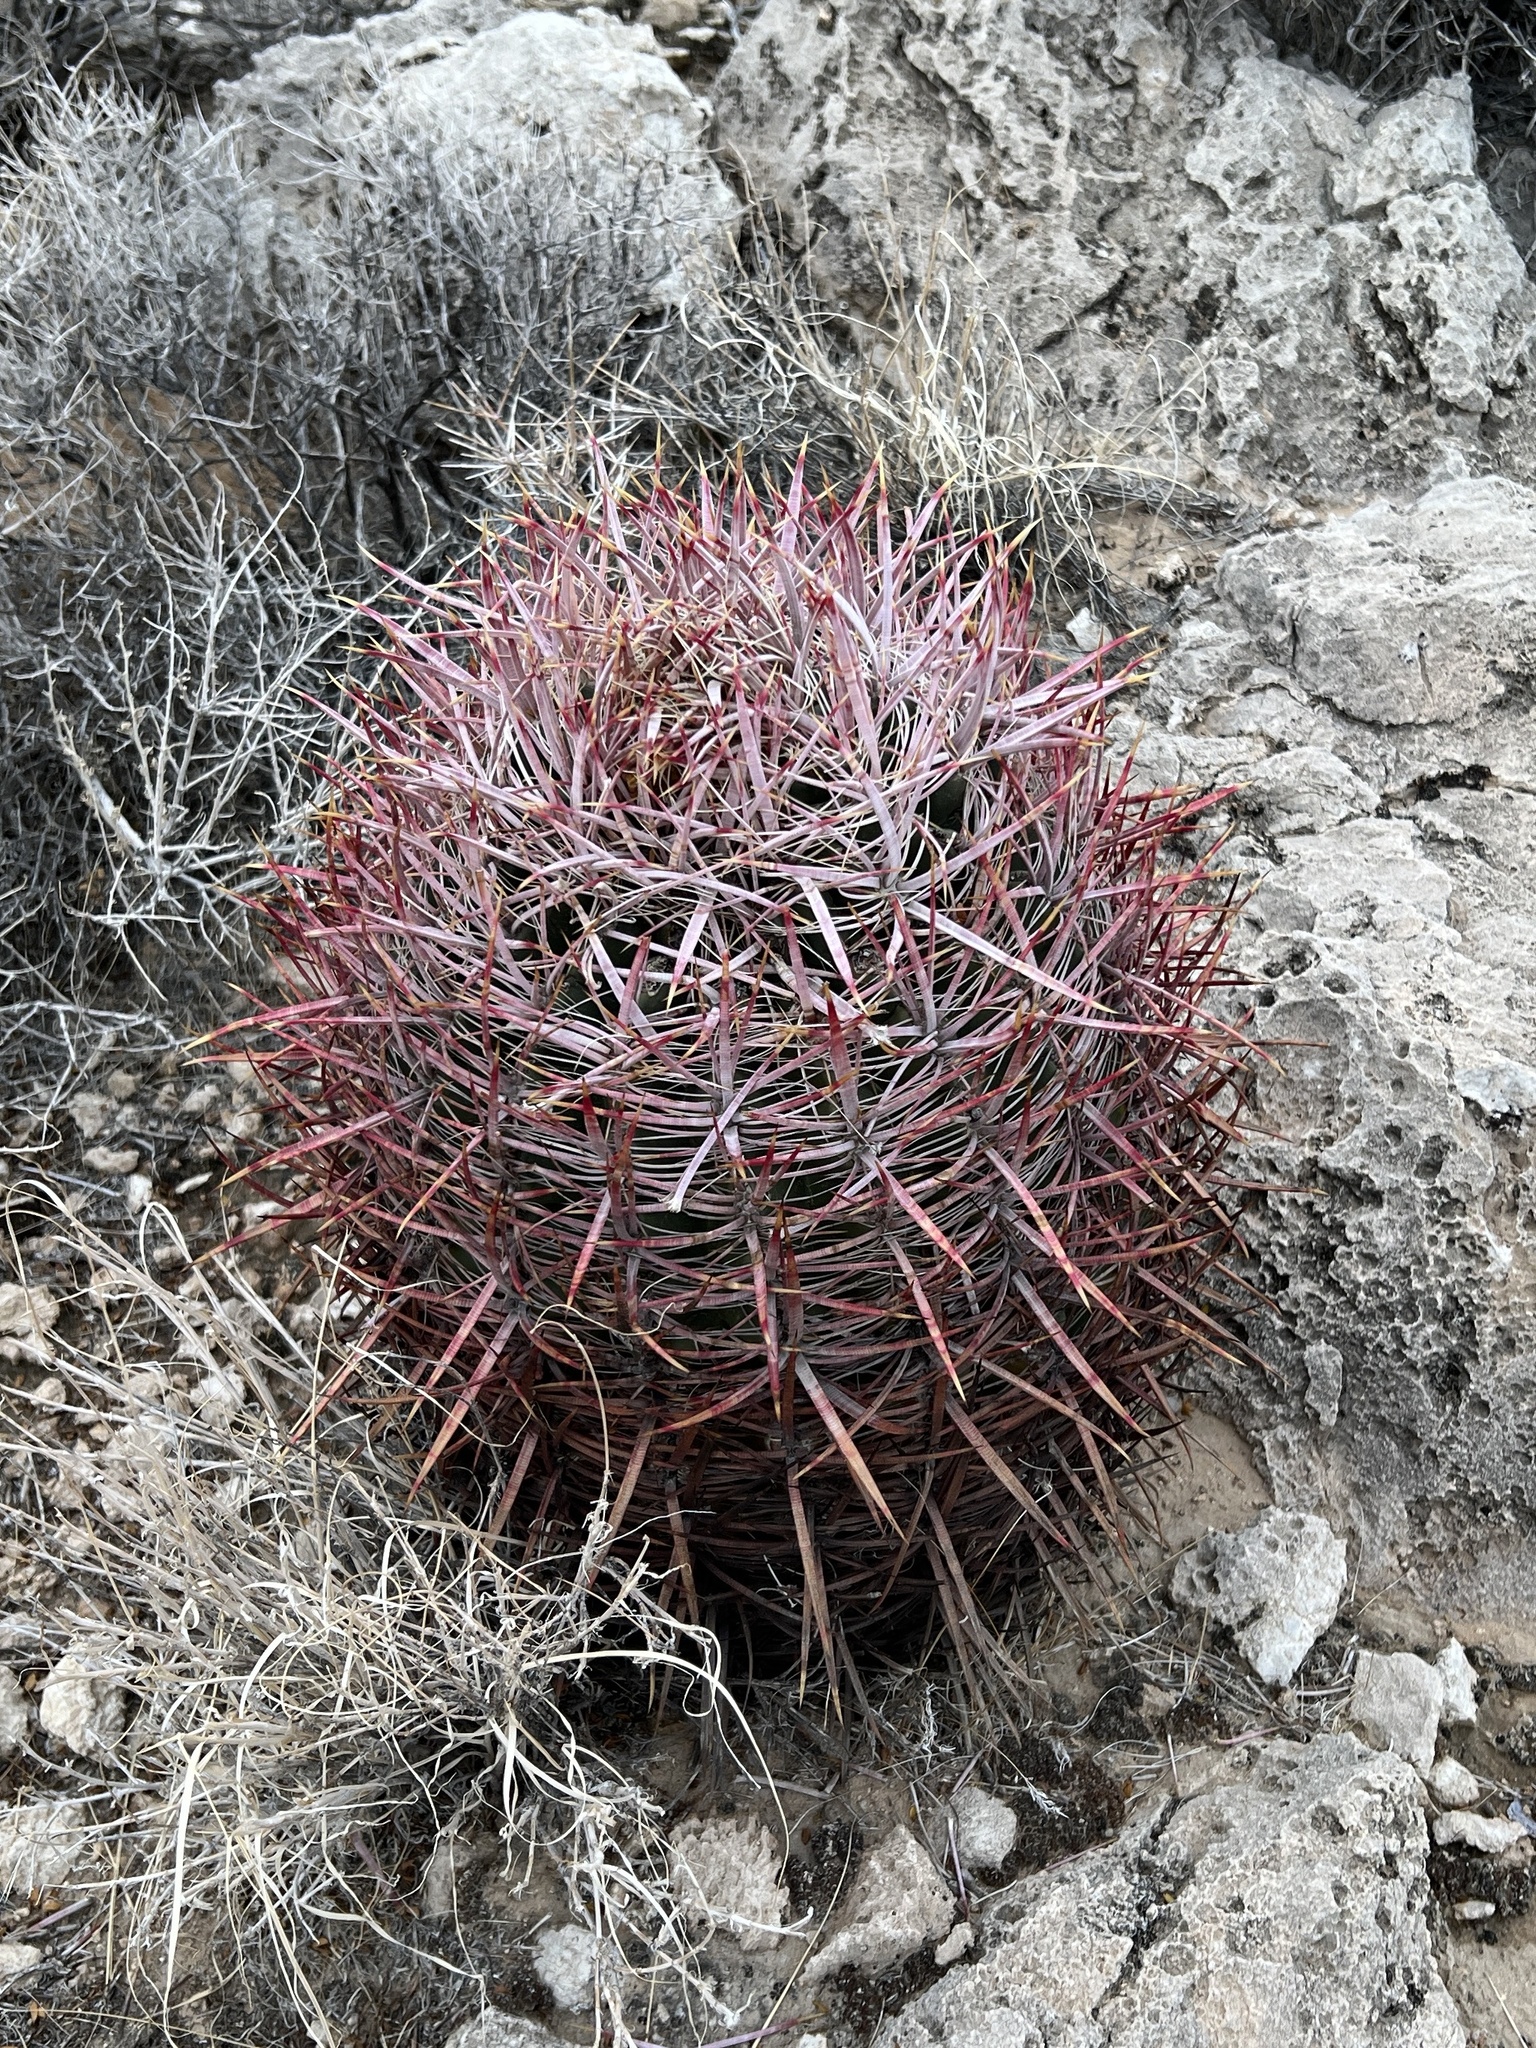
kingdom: Plantae
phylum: Tracheophyta
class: Magnoliopsida
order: Caryophyllales
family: Cactaceae
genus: Ferocactus
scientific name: Ferocactus cylindraceus
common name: California barrel cactus
